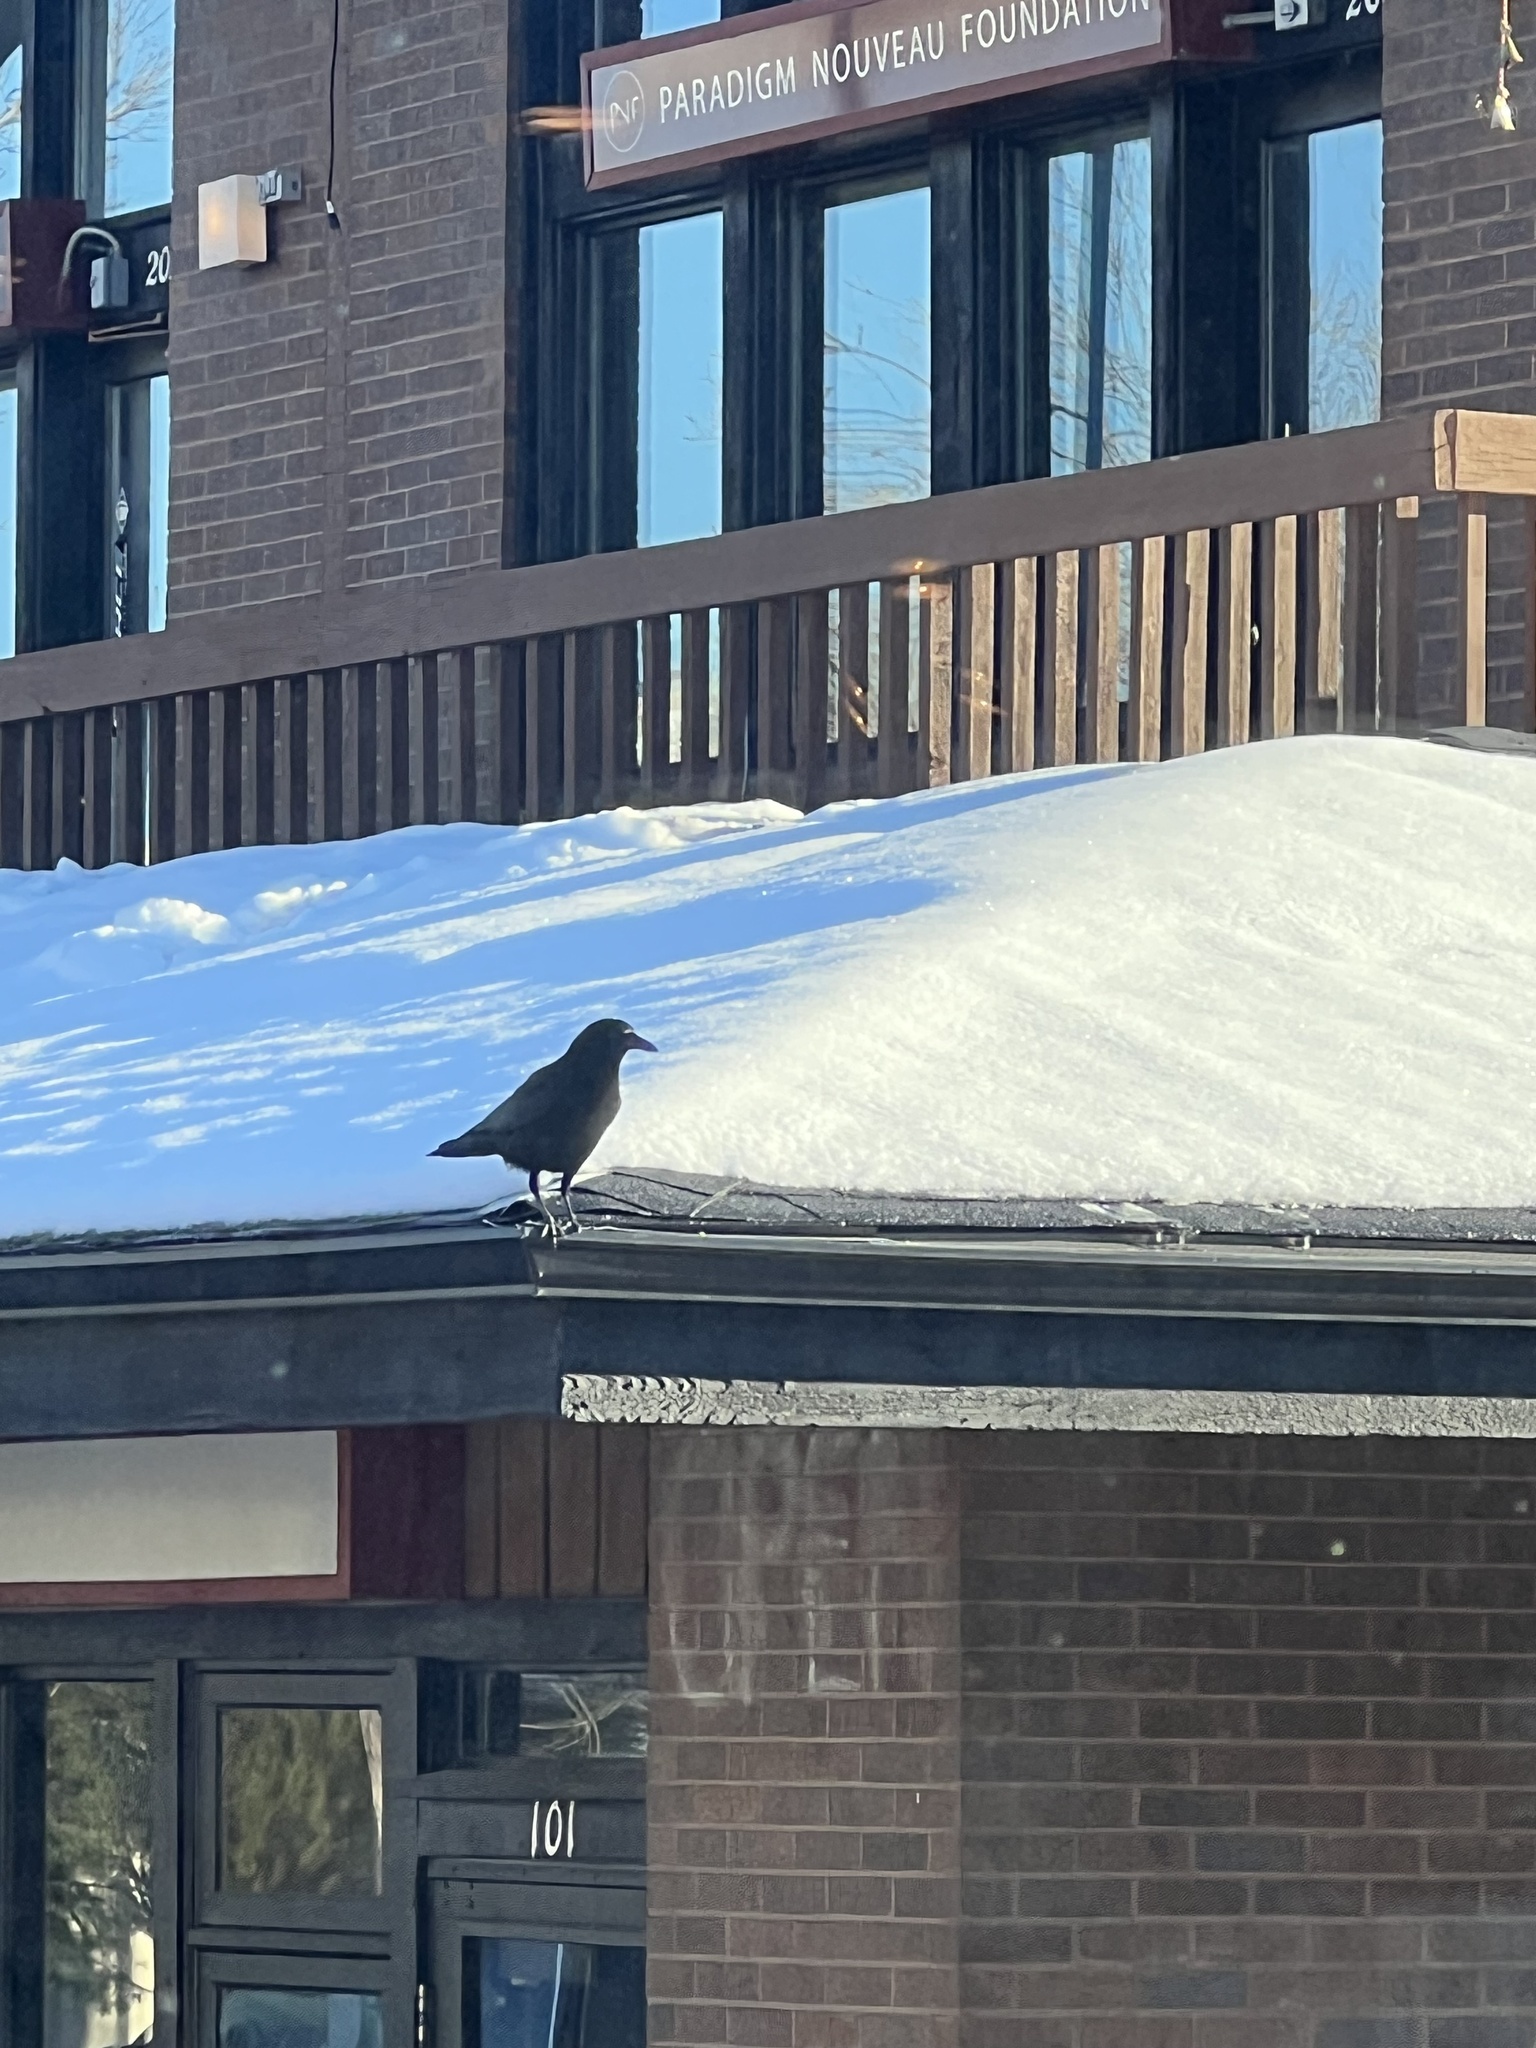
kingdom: Animalia
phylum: Chordata
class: Aves
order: Passeriformes
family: Corvidae
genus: Corvus
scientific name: Corvus brachyrhynchos
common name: American crow
